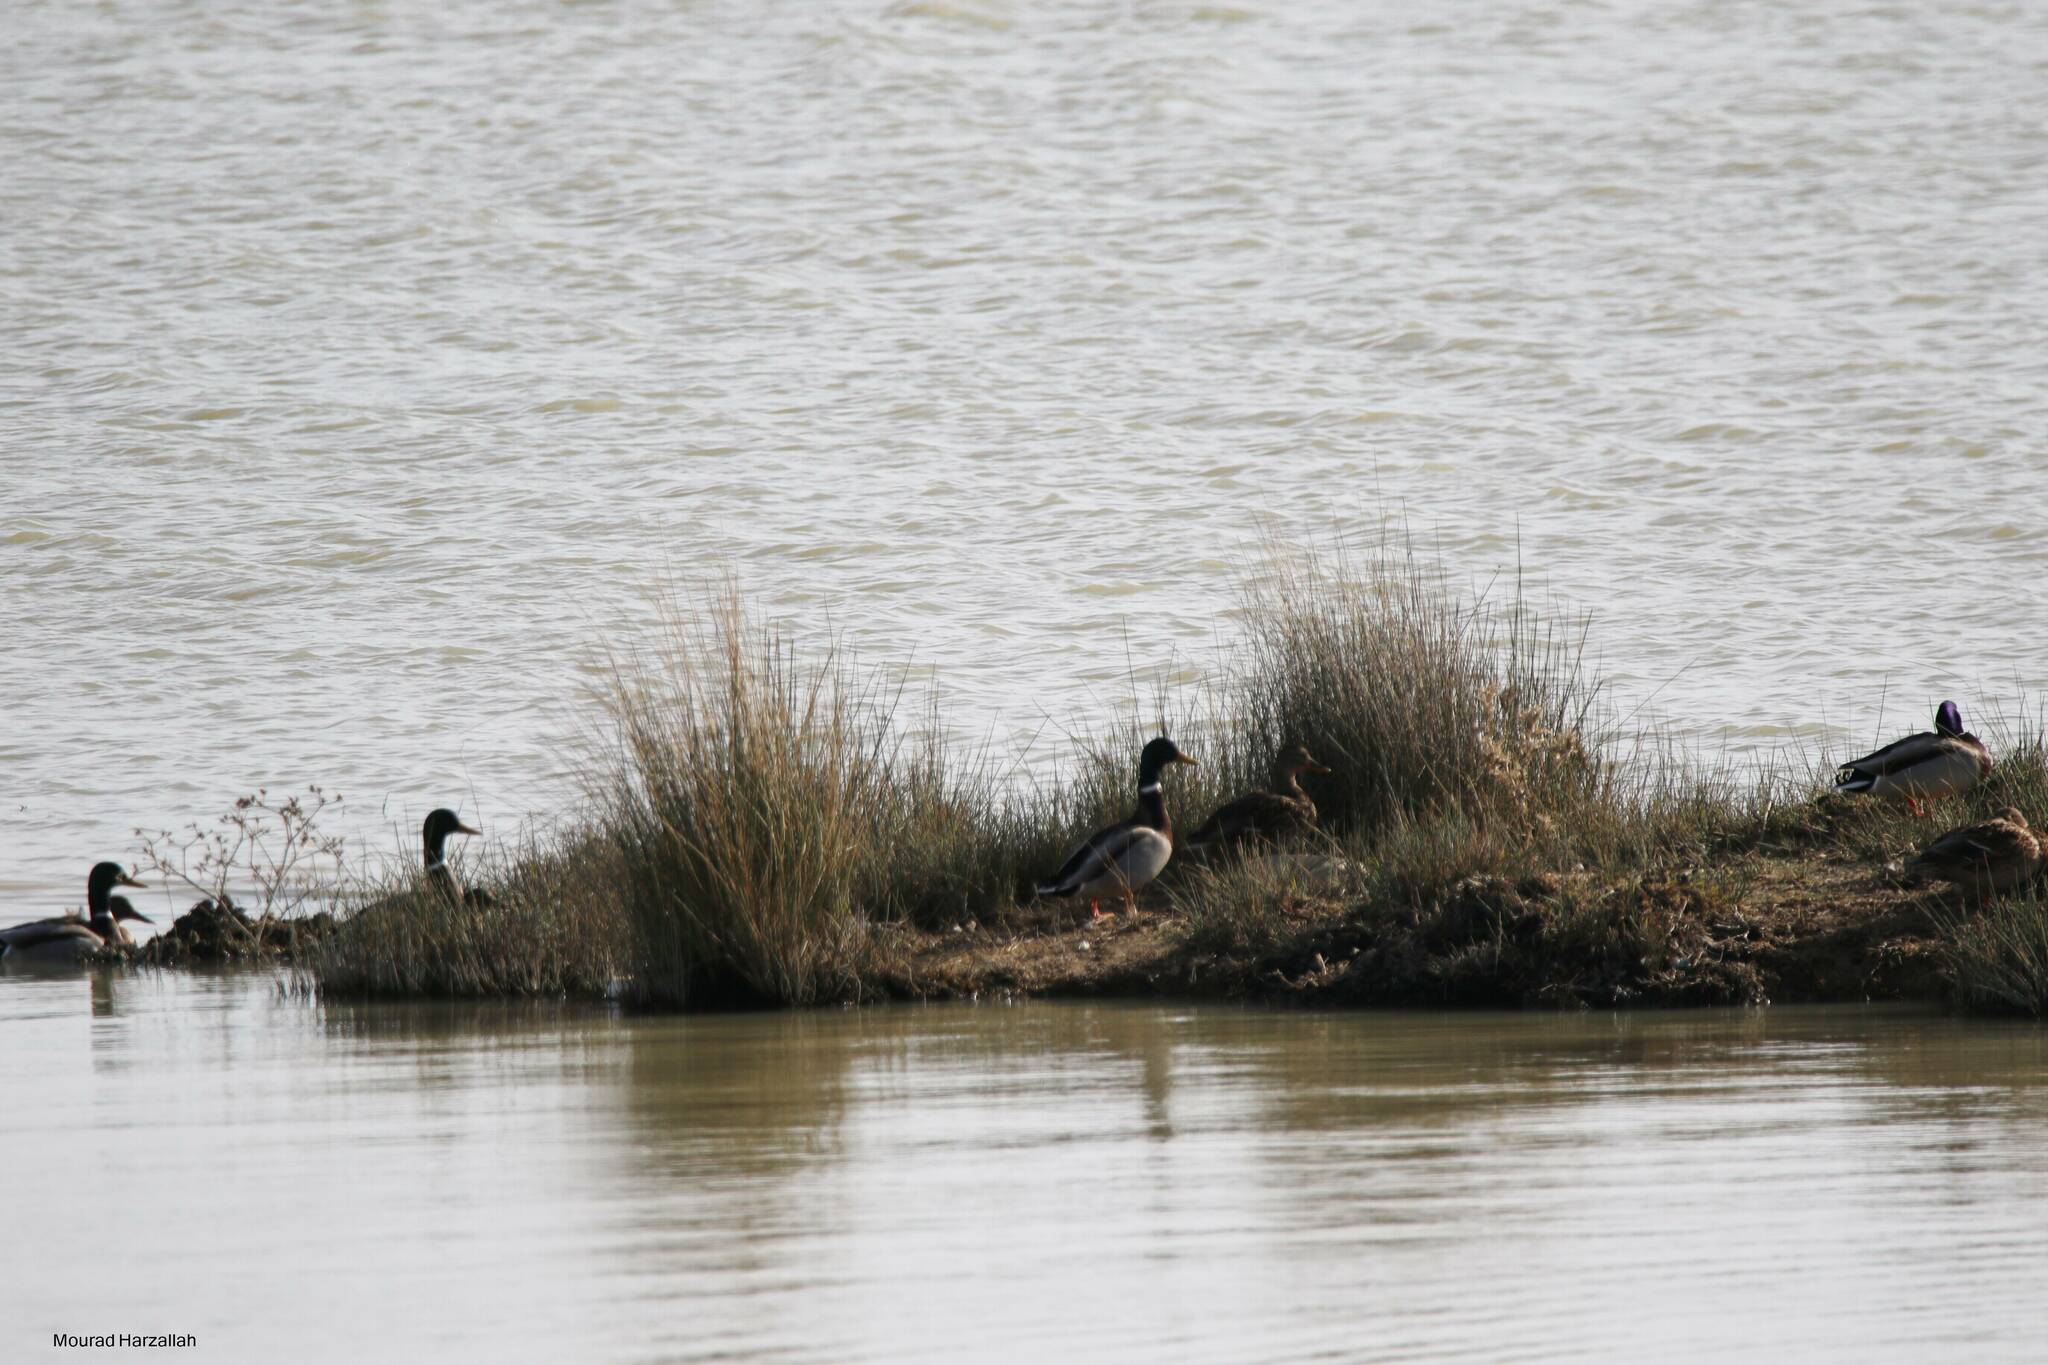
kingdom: Animalia
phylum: Chordata
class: Aves
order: Anseriformes
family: Anatidae
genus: Anas
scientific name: Anas platyrhynchos
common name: Mallard
